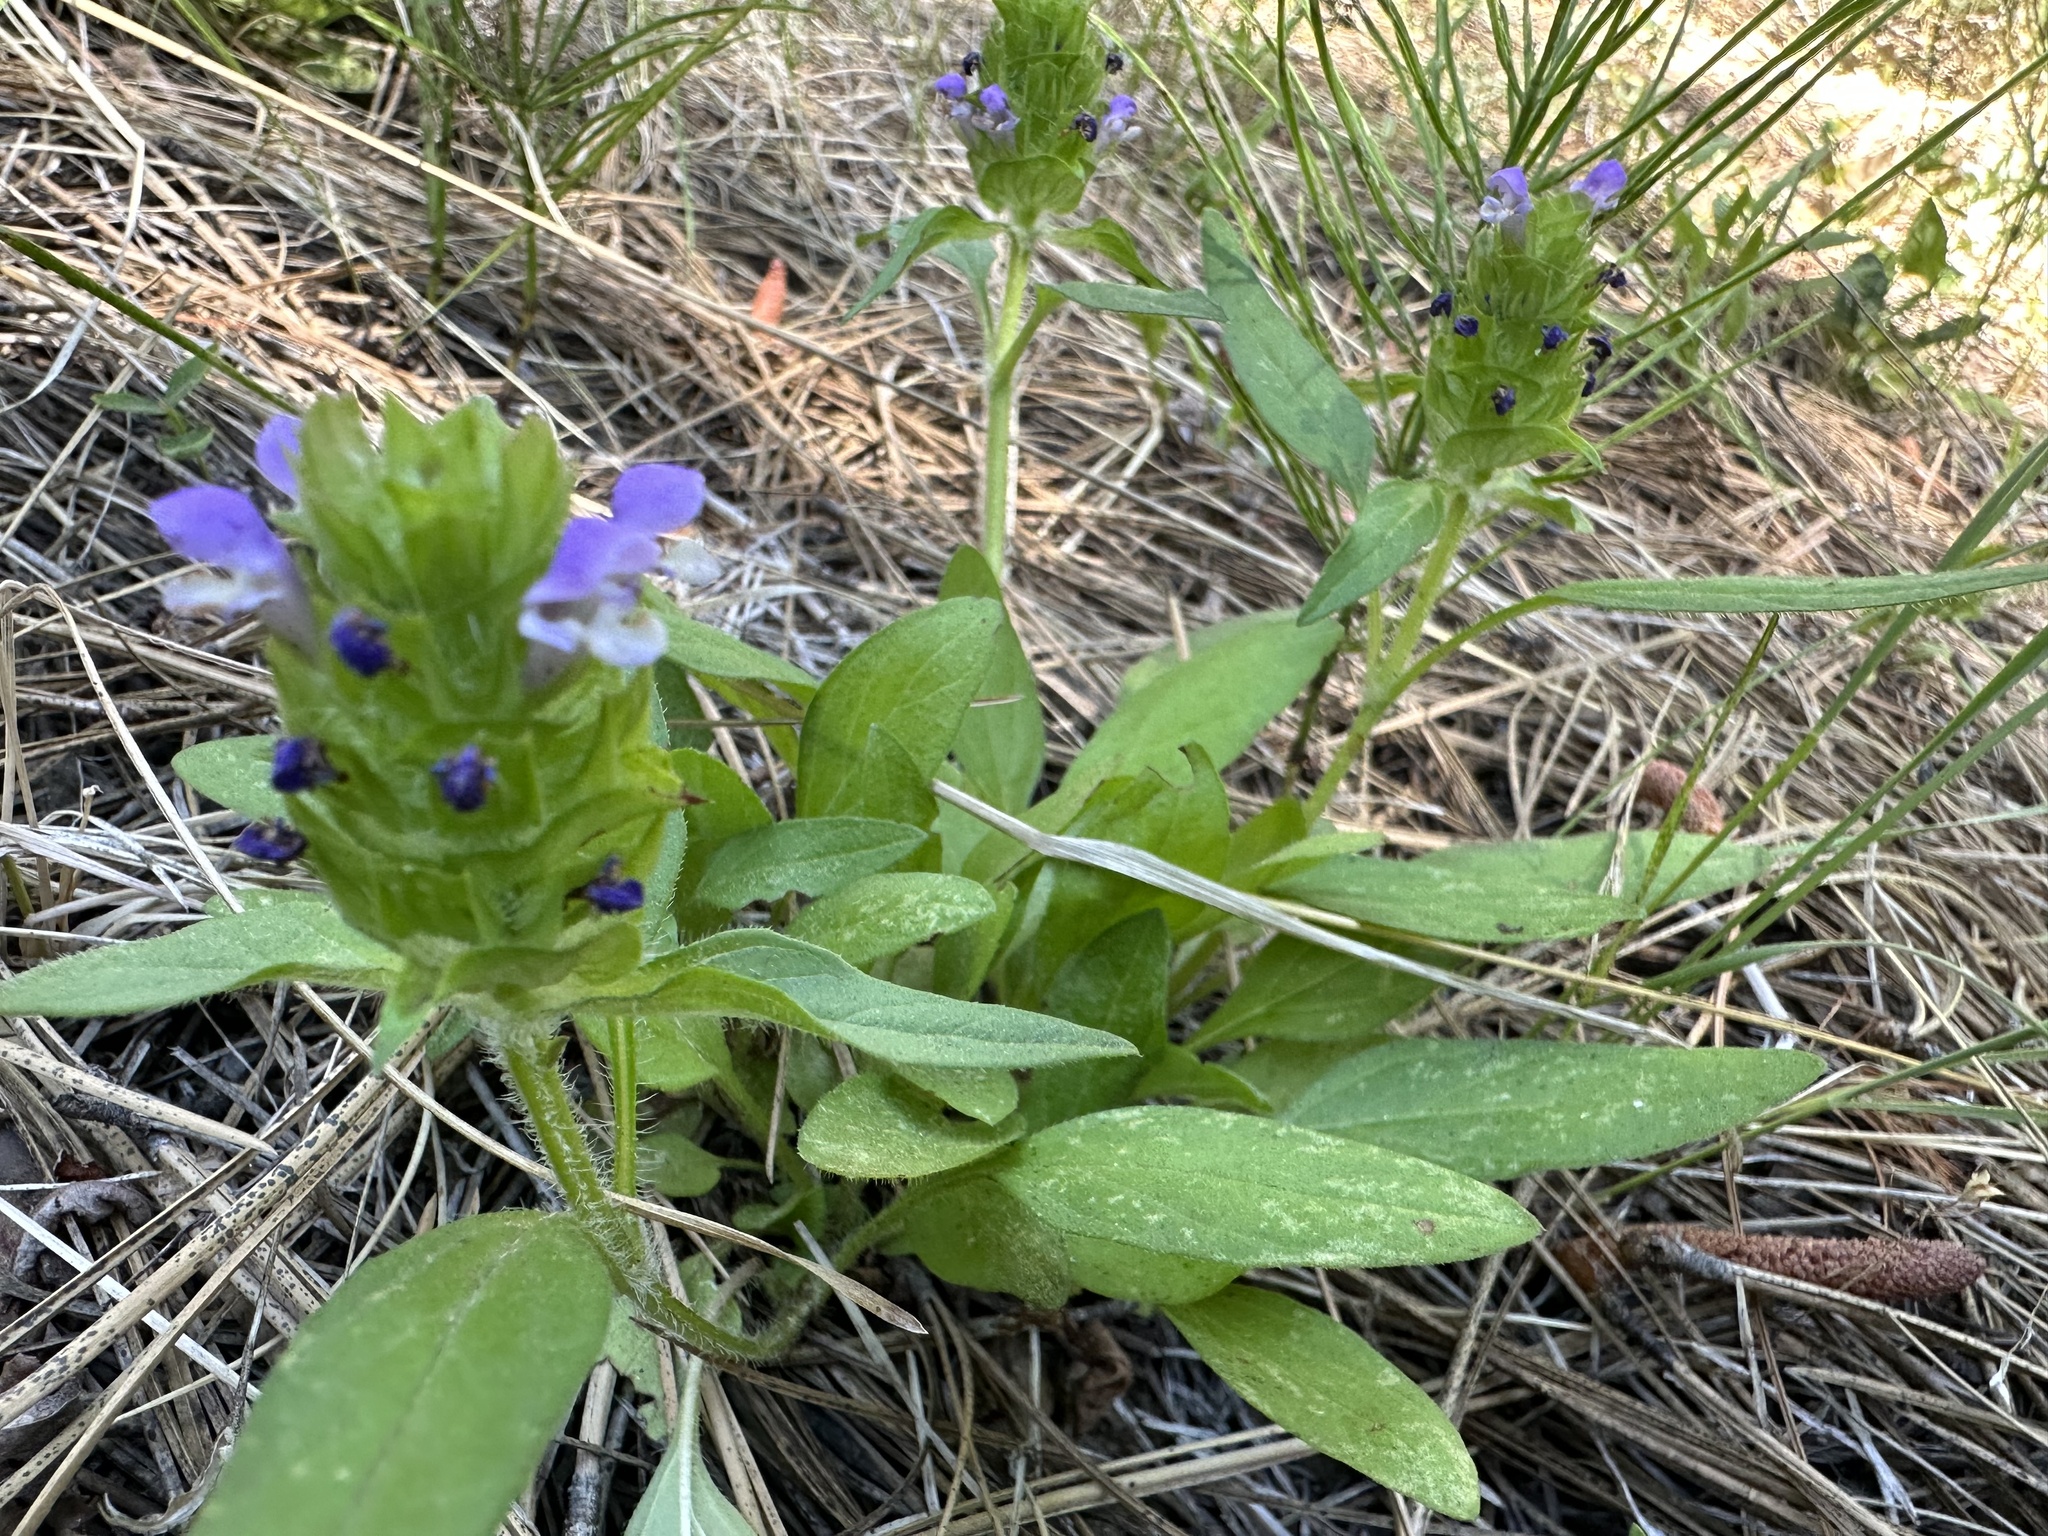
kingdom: Plantae
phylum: Tracheophyta
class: Magnoliopsida
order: Lamiales
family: Lamiaceae
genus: Prunella
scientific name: Prunella vulgaris
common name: Heal-all
